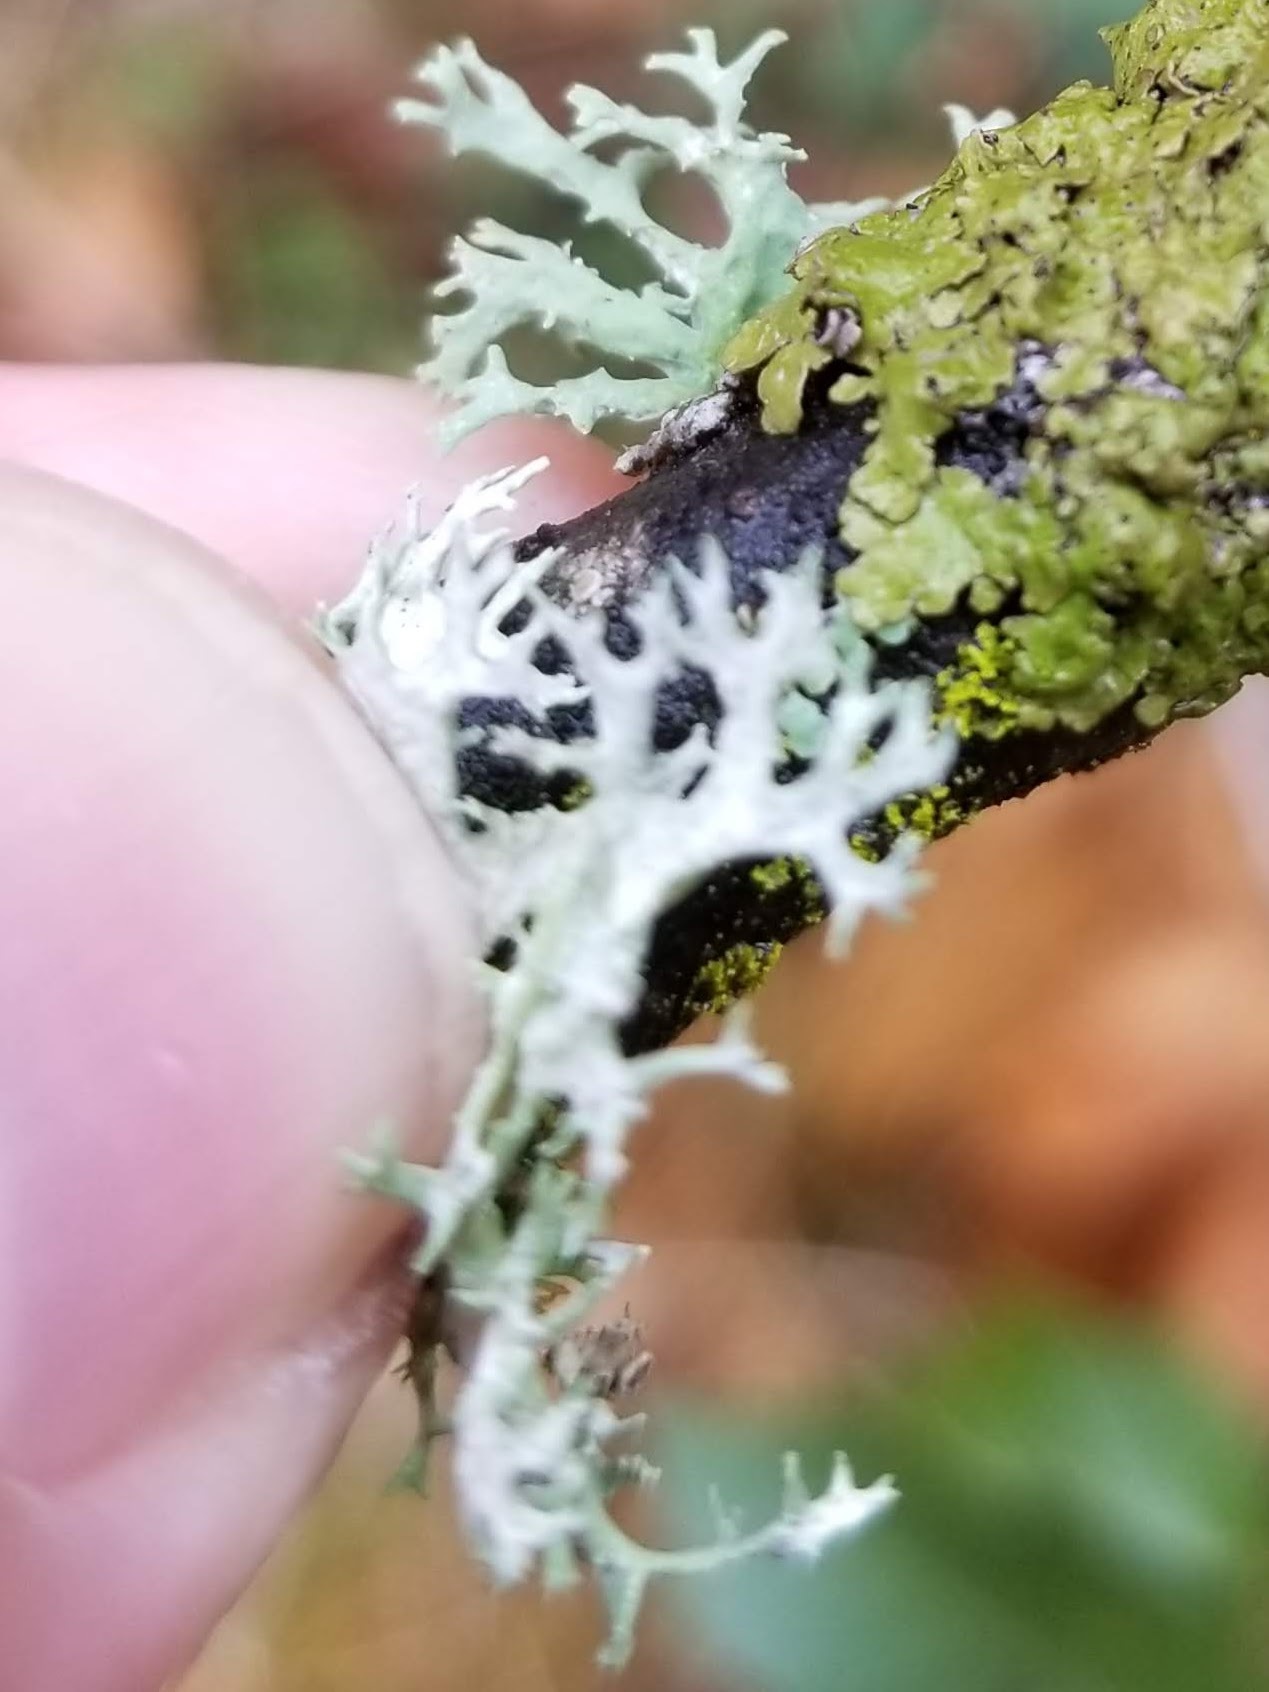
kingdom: Fungi
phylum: Ascomycota
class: Lecanoromycetes
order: Lecanorales
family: Parmeliaceae
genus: Evernia
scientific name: Evernia prunastri
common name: Oak moss
